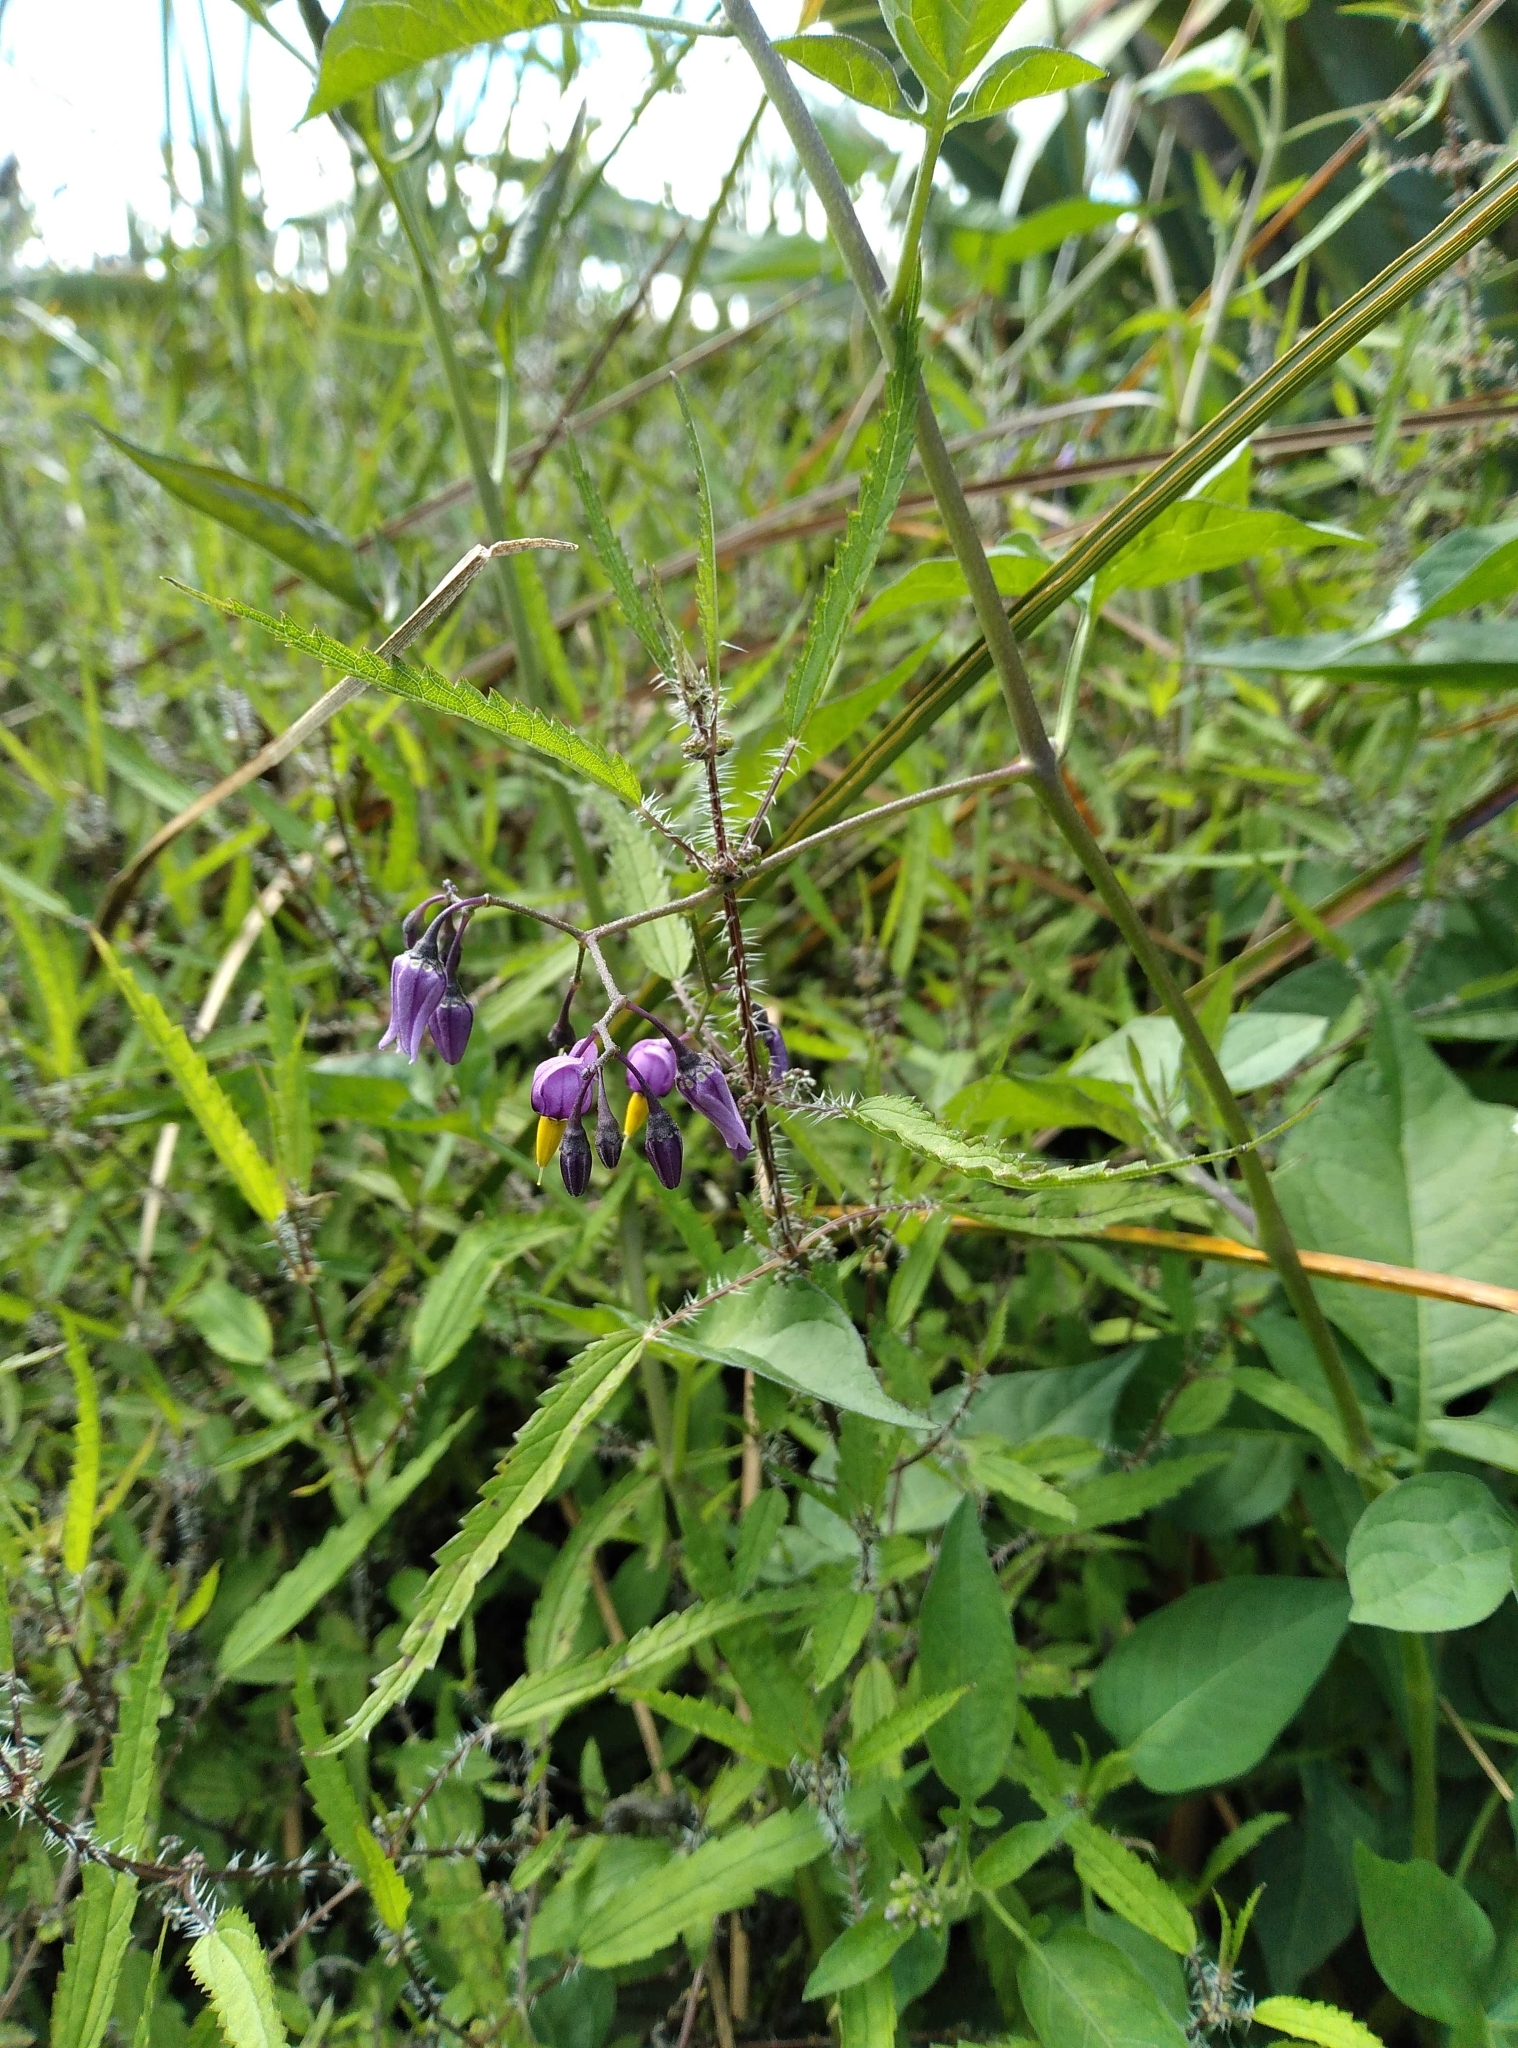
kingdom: Plantae
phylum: Tracheophyta
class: Magnoliopsida
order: Solanales
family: Solanaceae
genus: Solanum
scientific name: Solanum dulcamara
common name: Climbing nightshade
